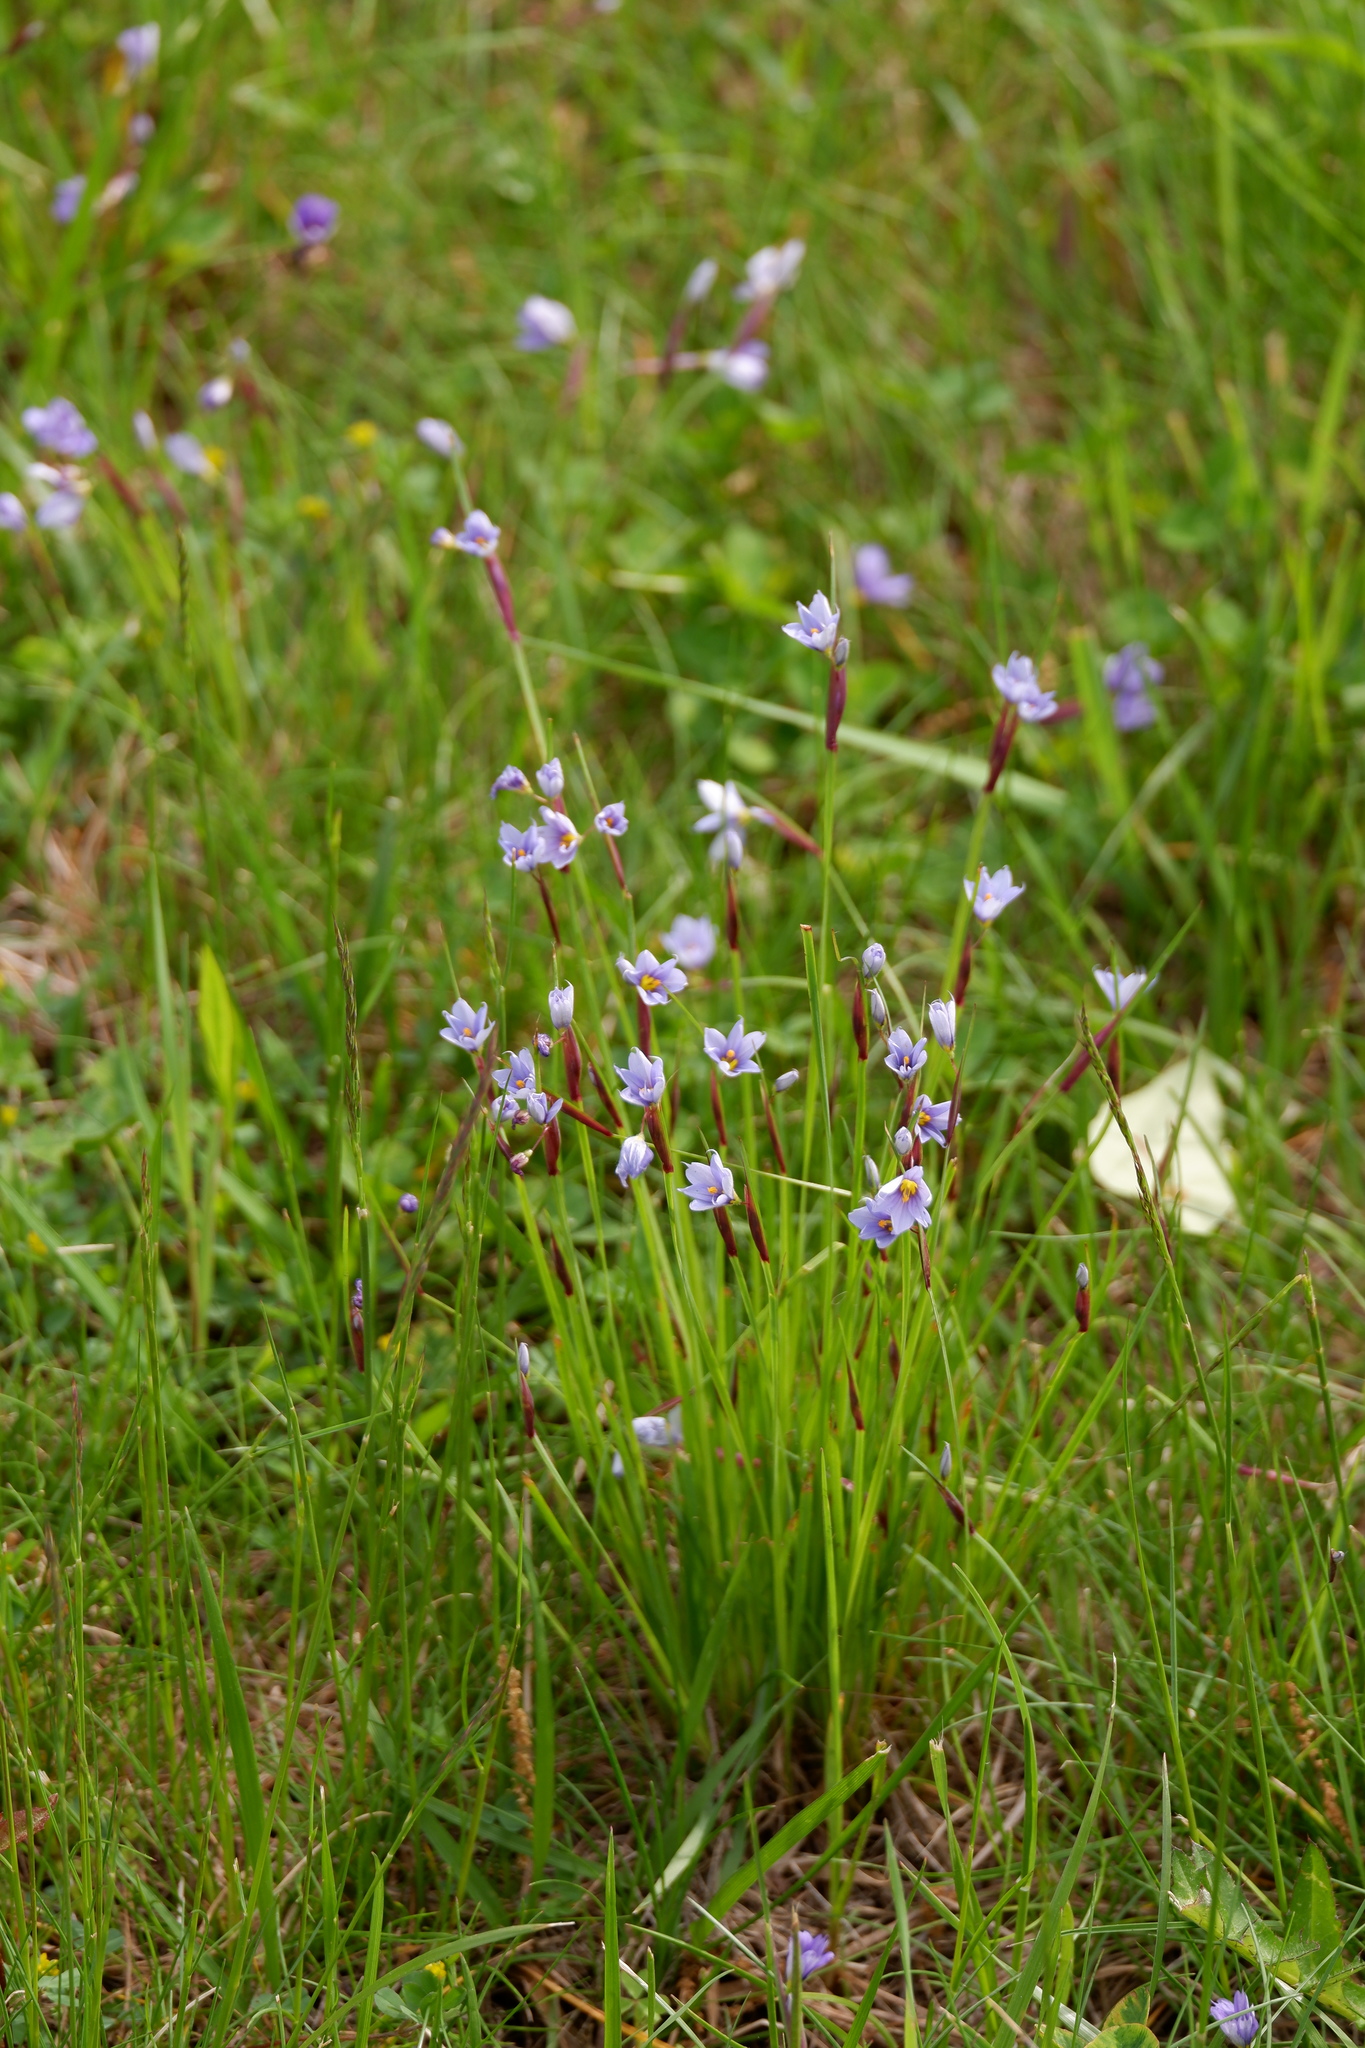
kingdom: Plantae
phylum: Tracheophyta
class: Liliopsida
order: Asparagales
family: Iridaceae
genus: Sisyrinchium
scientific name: Sisyrinchium mucronatum
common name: Eastern blue-eyed-grass
